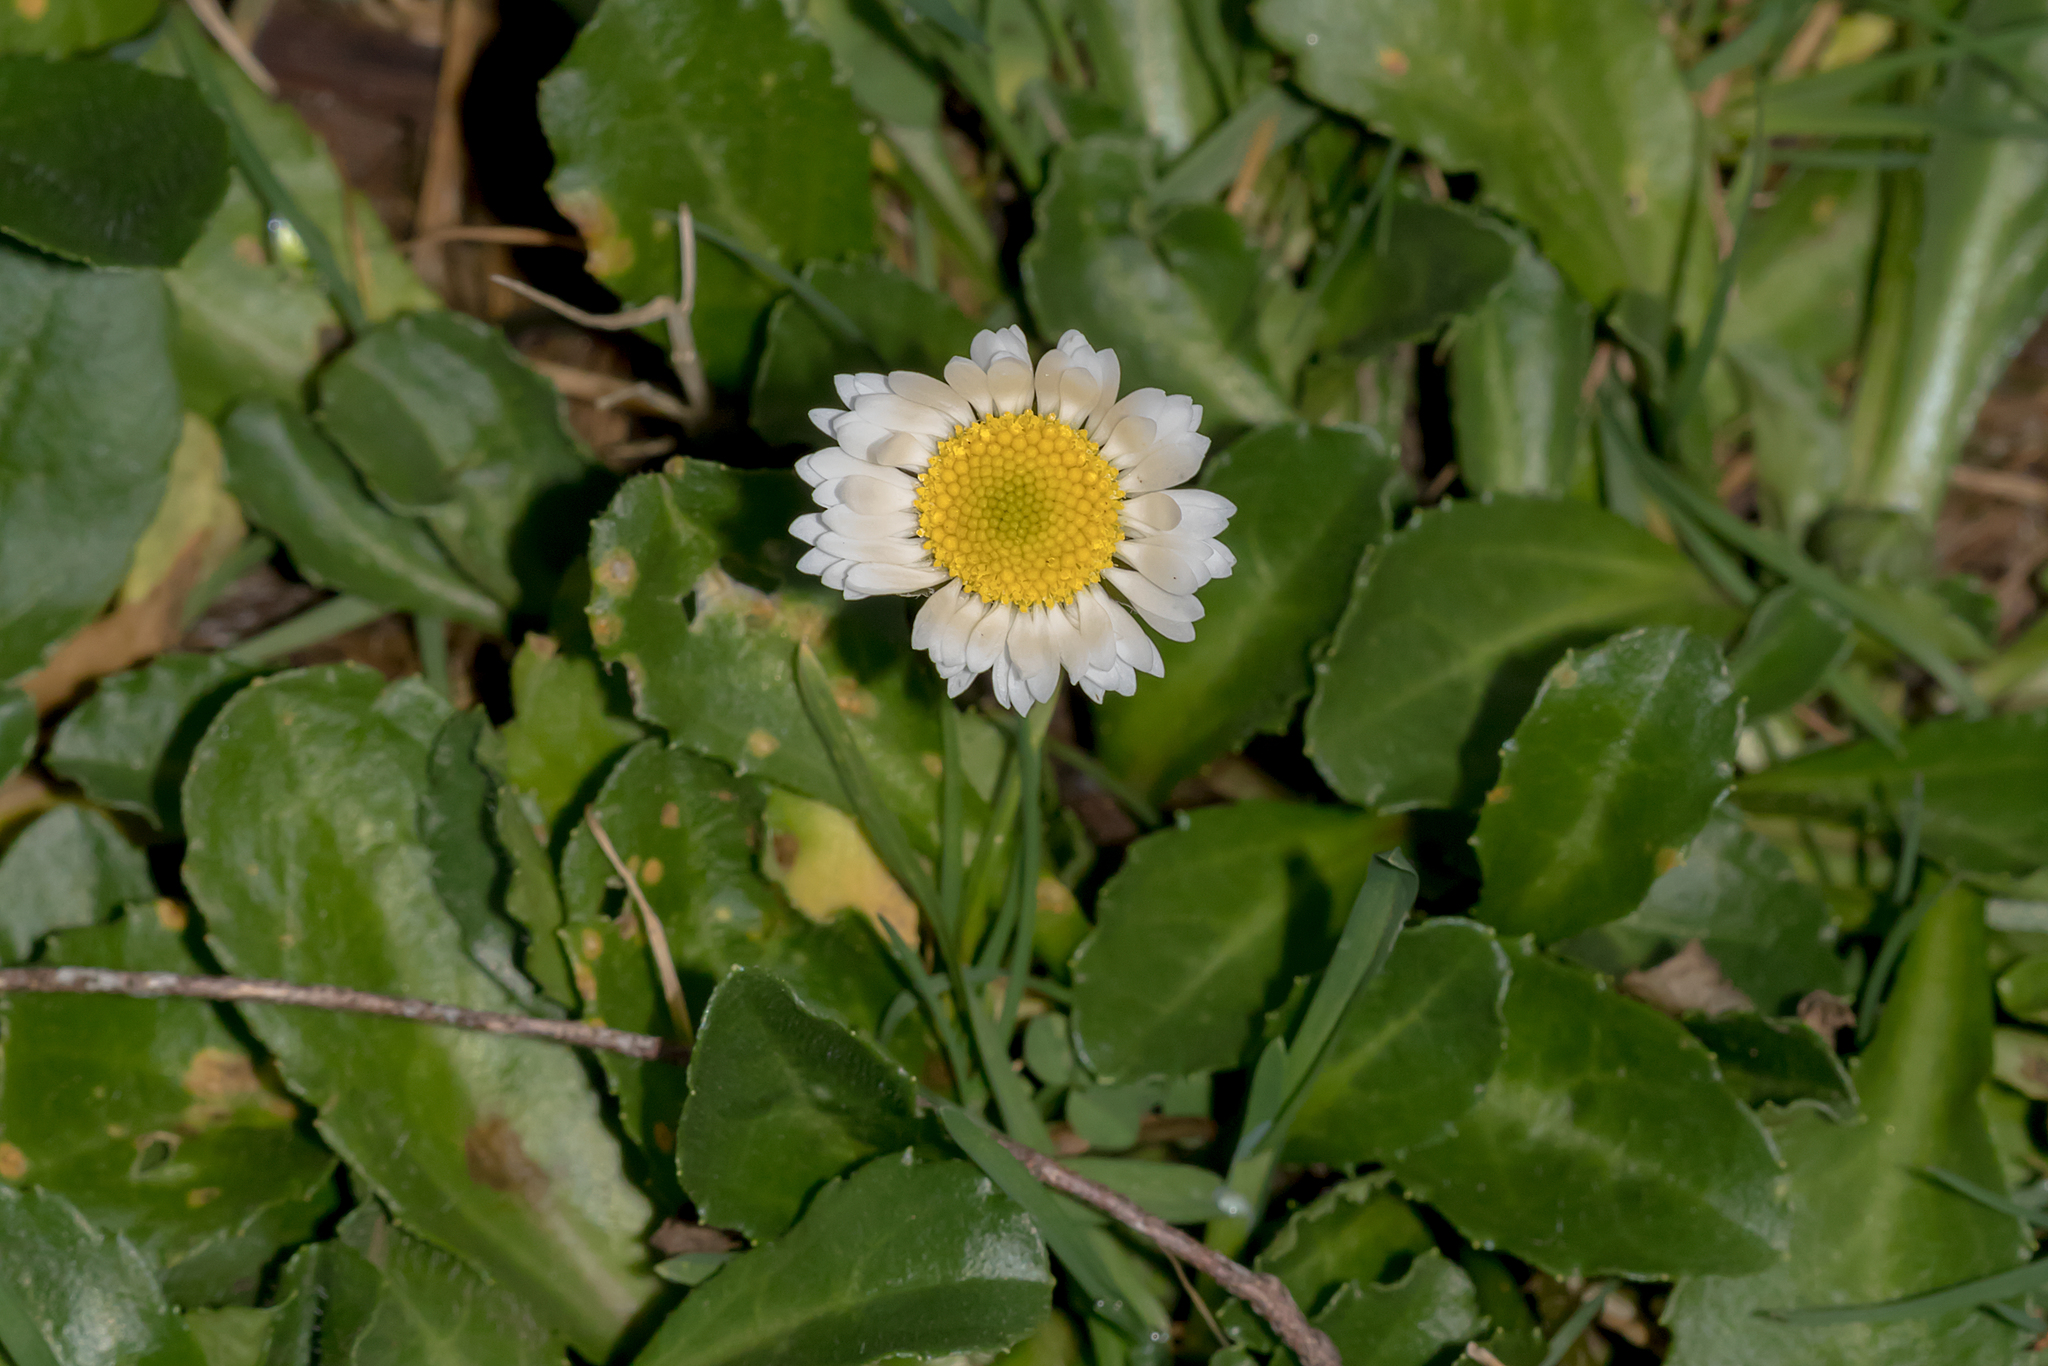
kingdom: Plantae
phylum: Tracheophyta
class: Magnoliopsida
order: Asterales
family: Asteraceae
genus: Bellis
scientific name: Bellis perennis
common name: Lawndaisy
